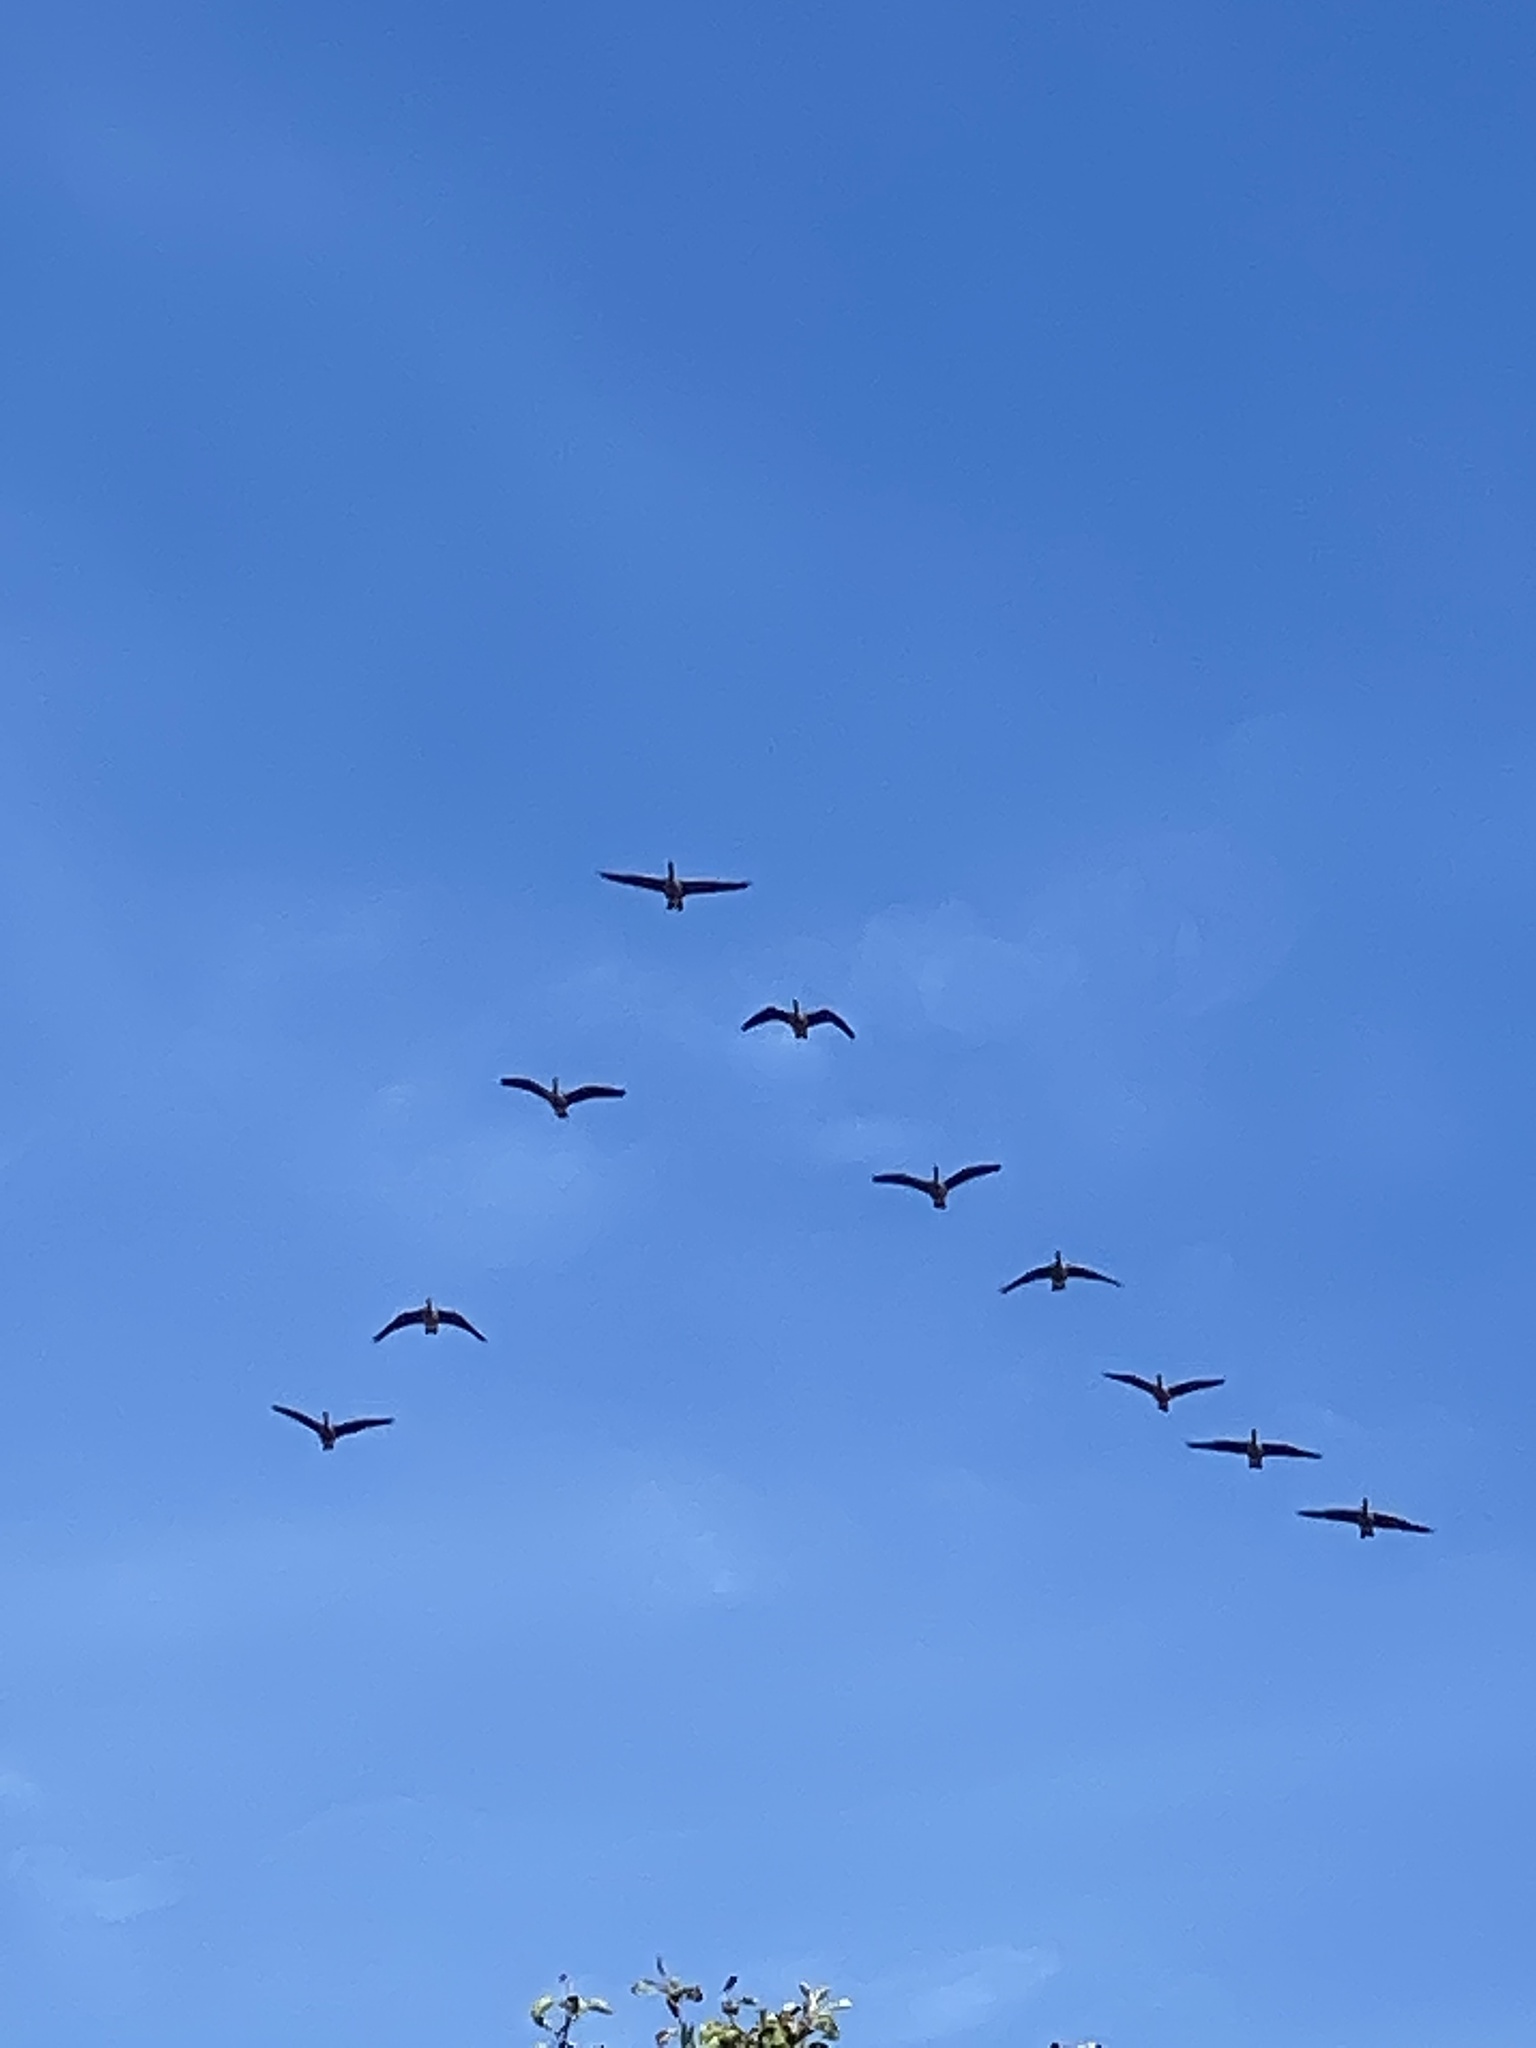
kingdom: Animalia
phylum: Chordata
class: Aves
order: Anseriformes
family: Anatidae
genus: Branta
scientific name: Branta canadensis
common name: Canada goose
